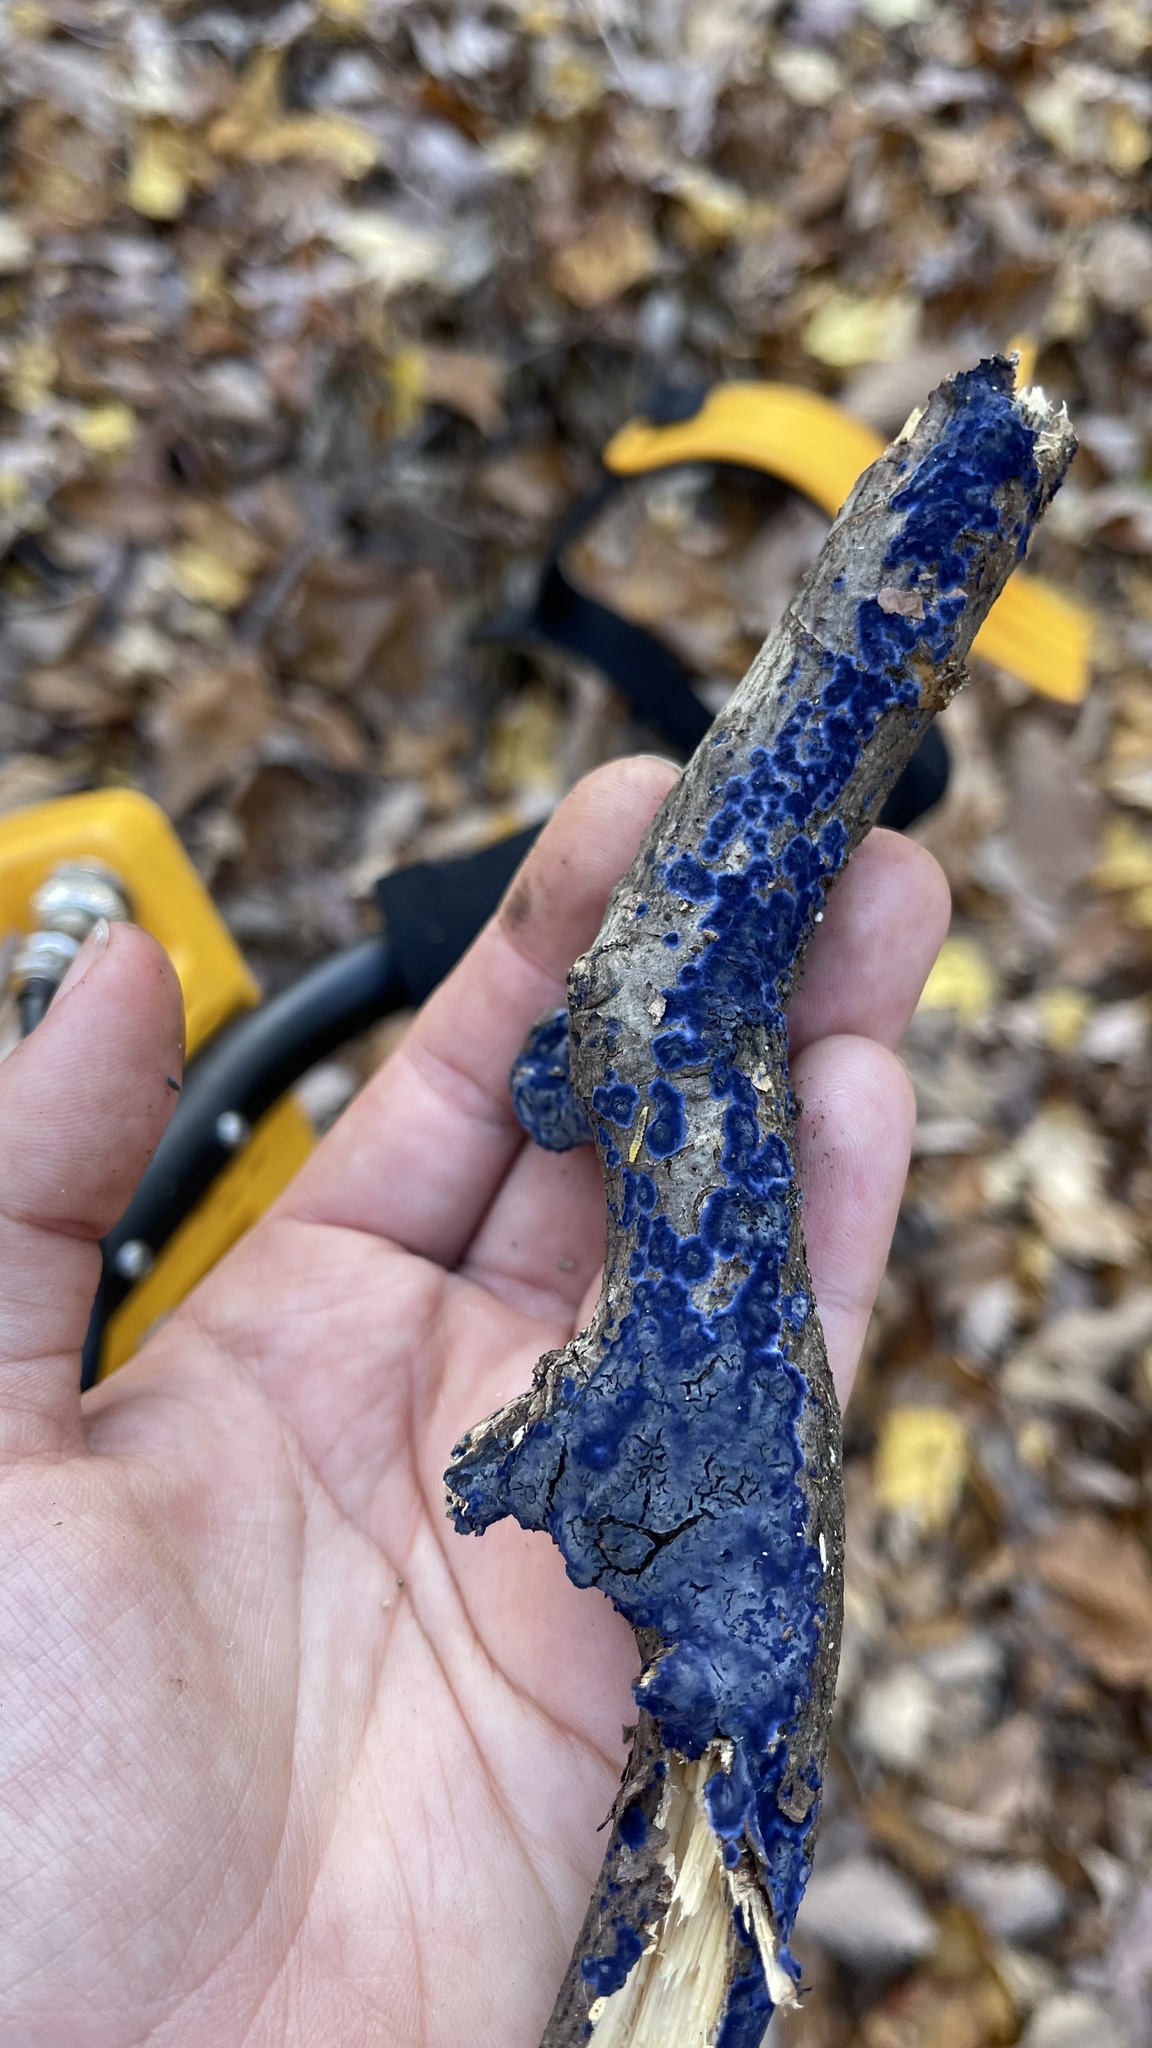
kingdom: Fungi
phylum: Basidiomycota
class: Agaricomycetes
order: Polyporales
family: Phanerochaetaceae
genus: Terana
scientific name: Terana coerulea
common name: Cobalt crust
